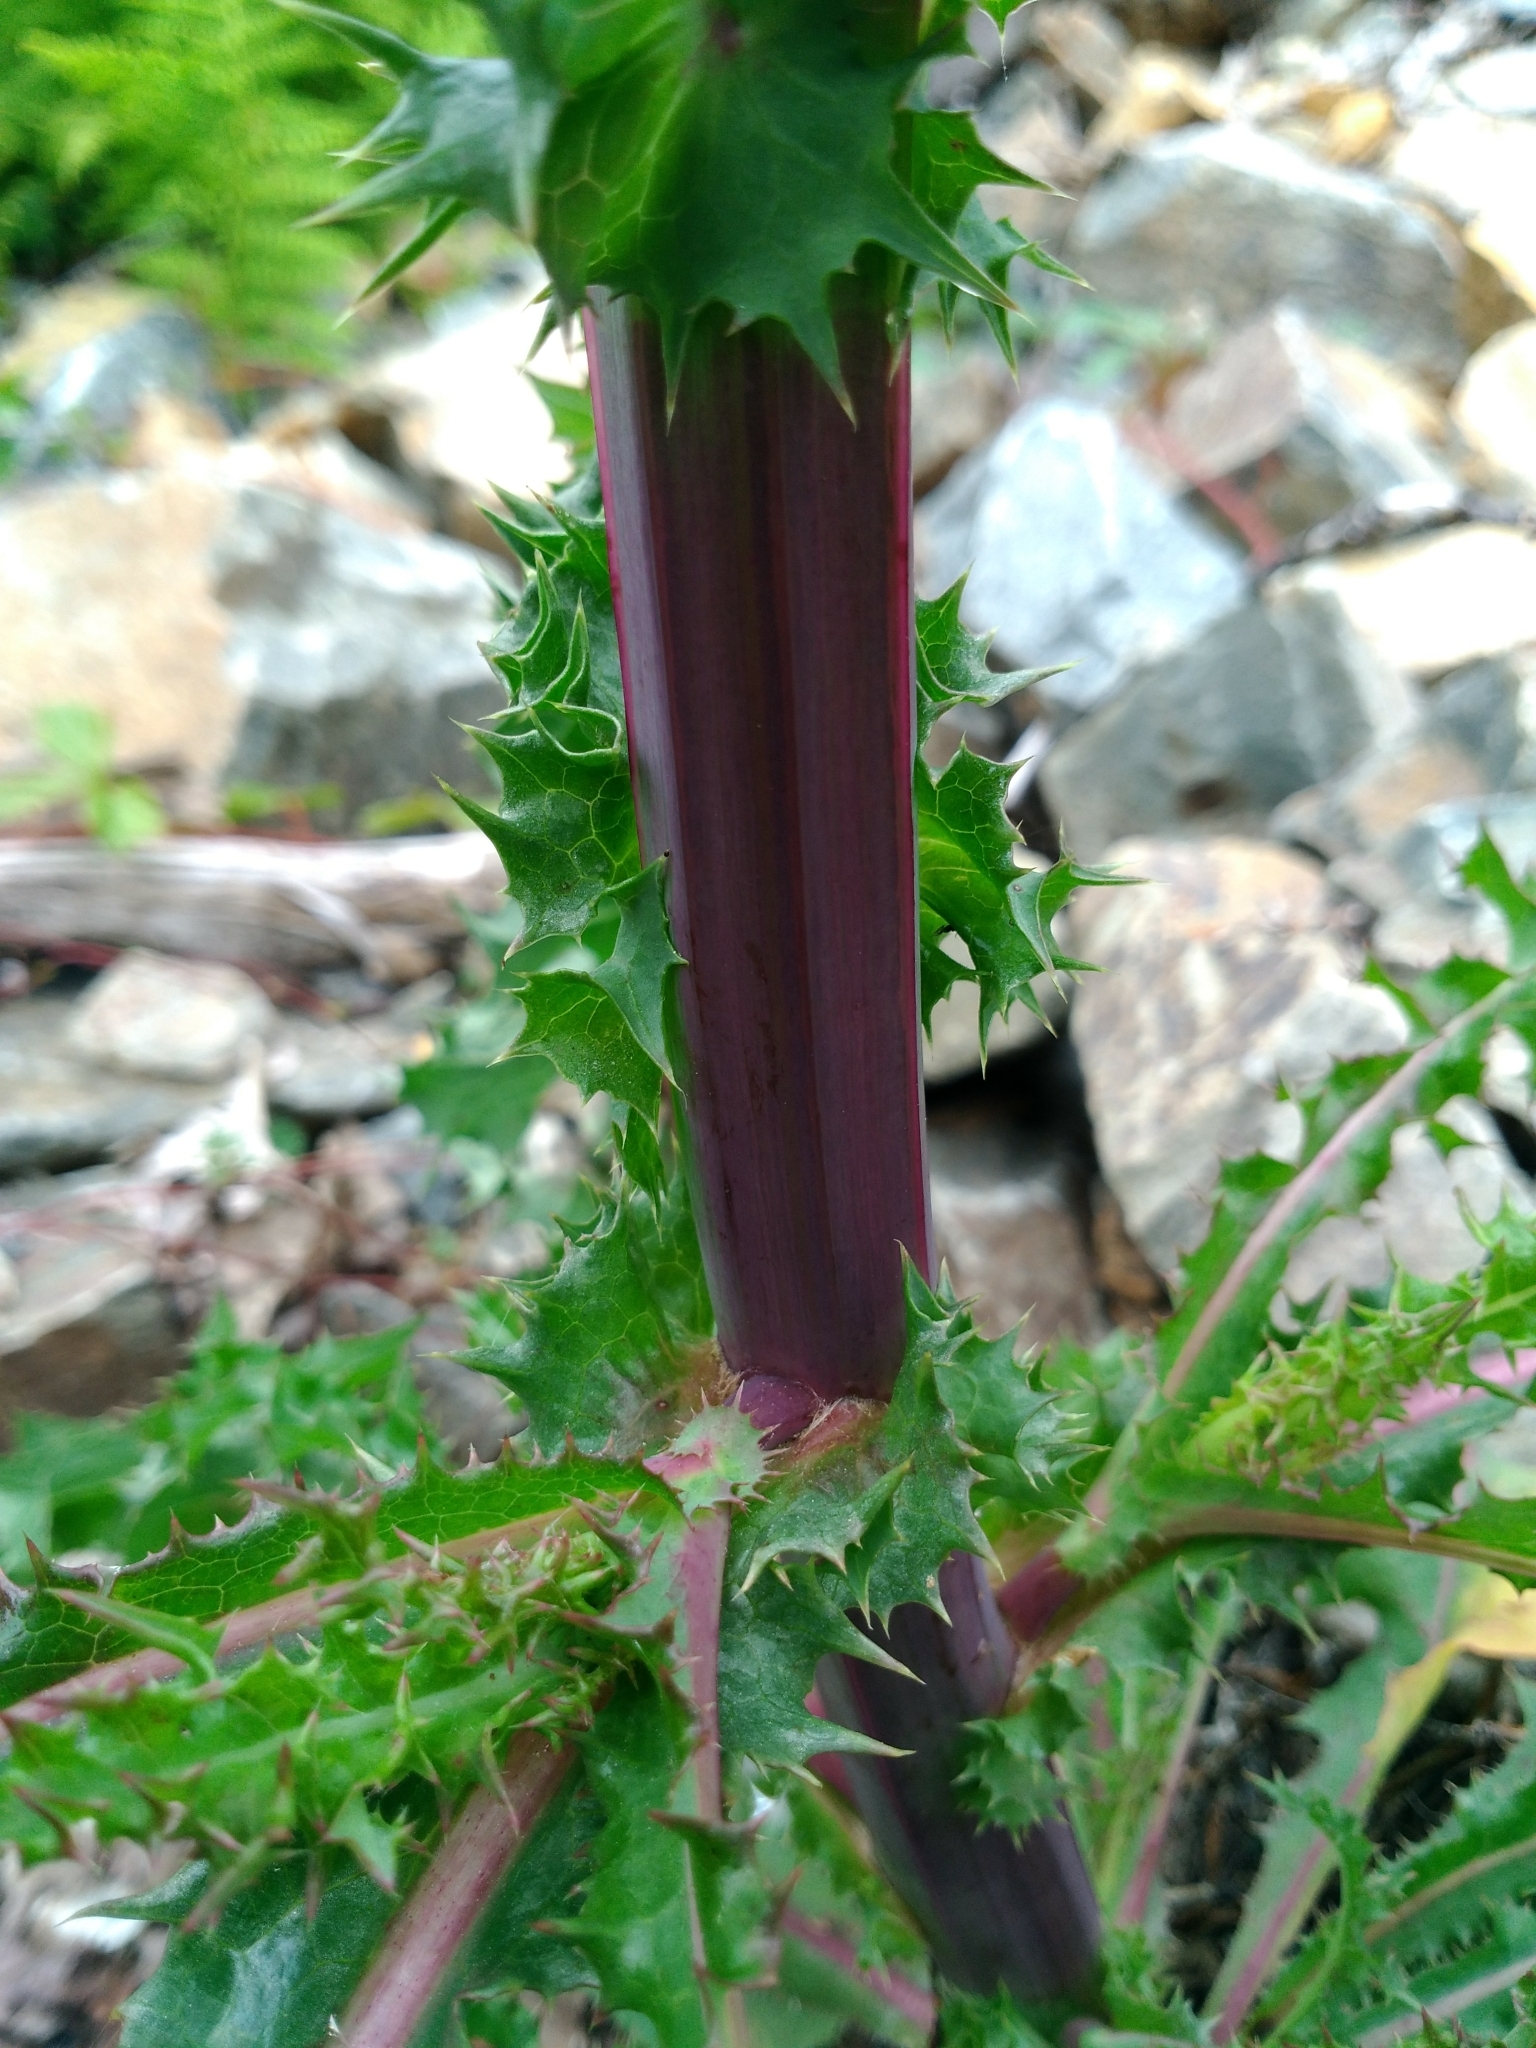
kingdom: Plantae
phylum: Tracheophyta
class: Magnoliopsida
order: Asterales
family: Asteraceae
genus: Sonchus
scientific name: Sonchus asper
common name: Prickly sow-thistle
